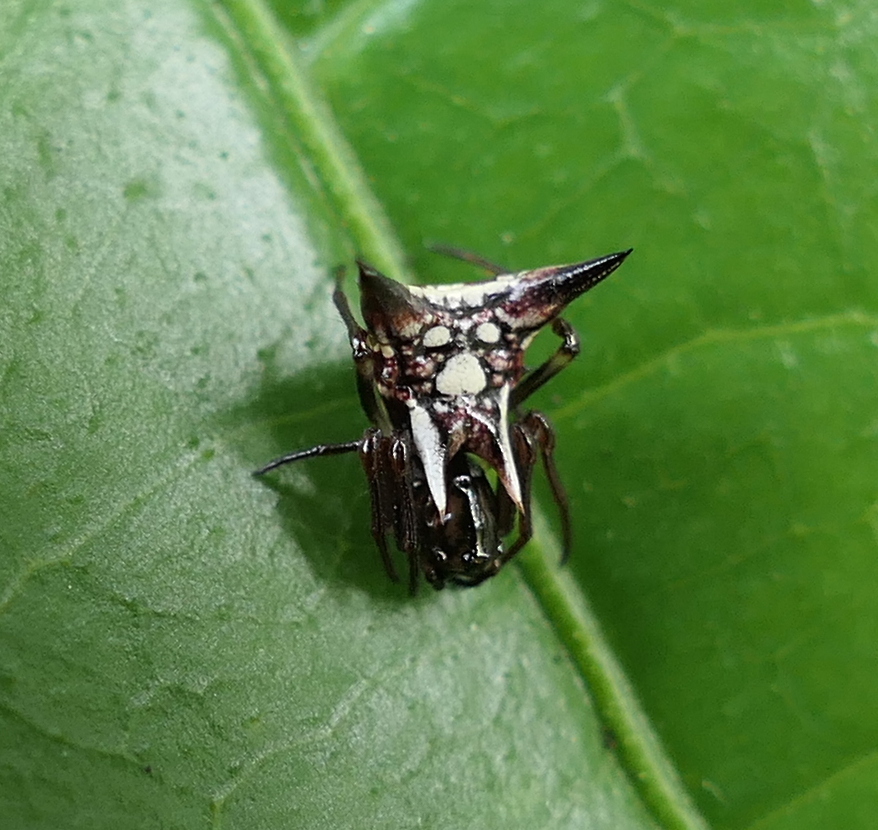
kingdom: Animalia
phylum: Arthropoda
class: Arachnida
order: Araneae
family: Araneidae
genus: Micrathena
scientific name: Micrathena evansi
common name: Orb weavers
